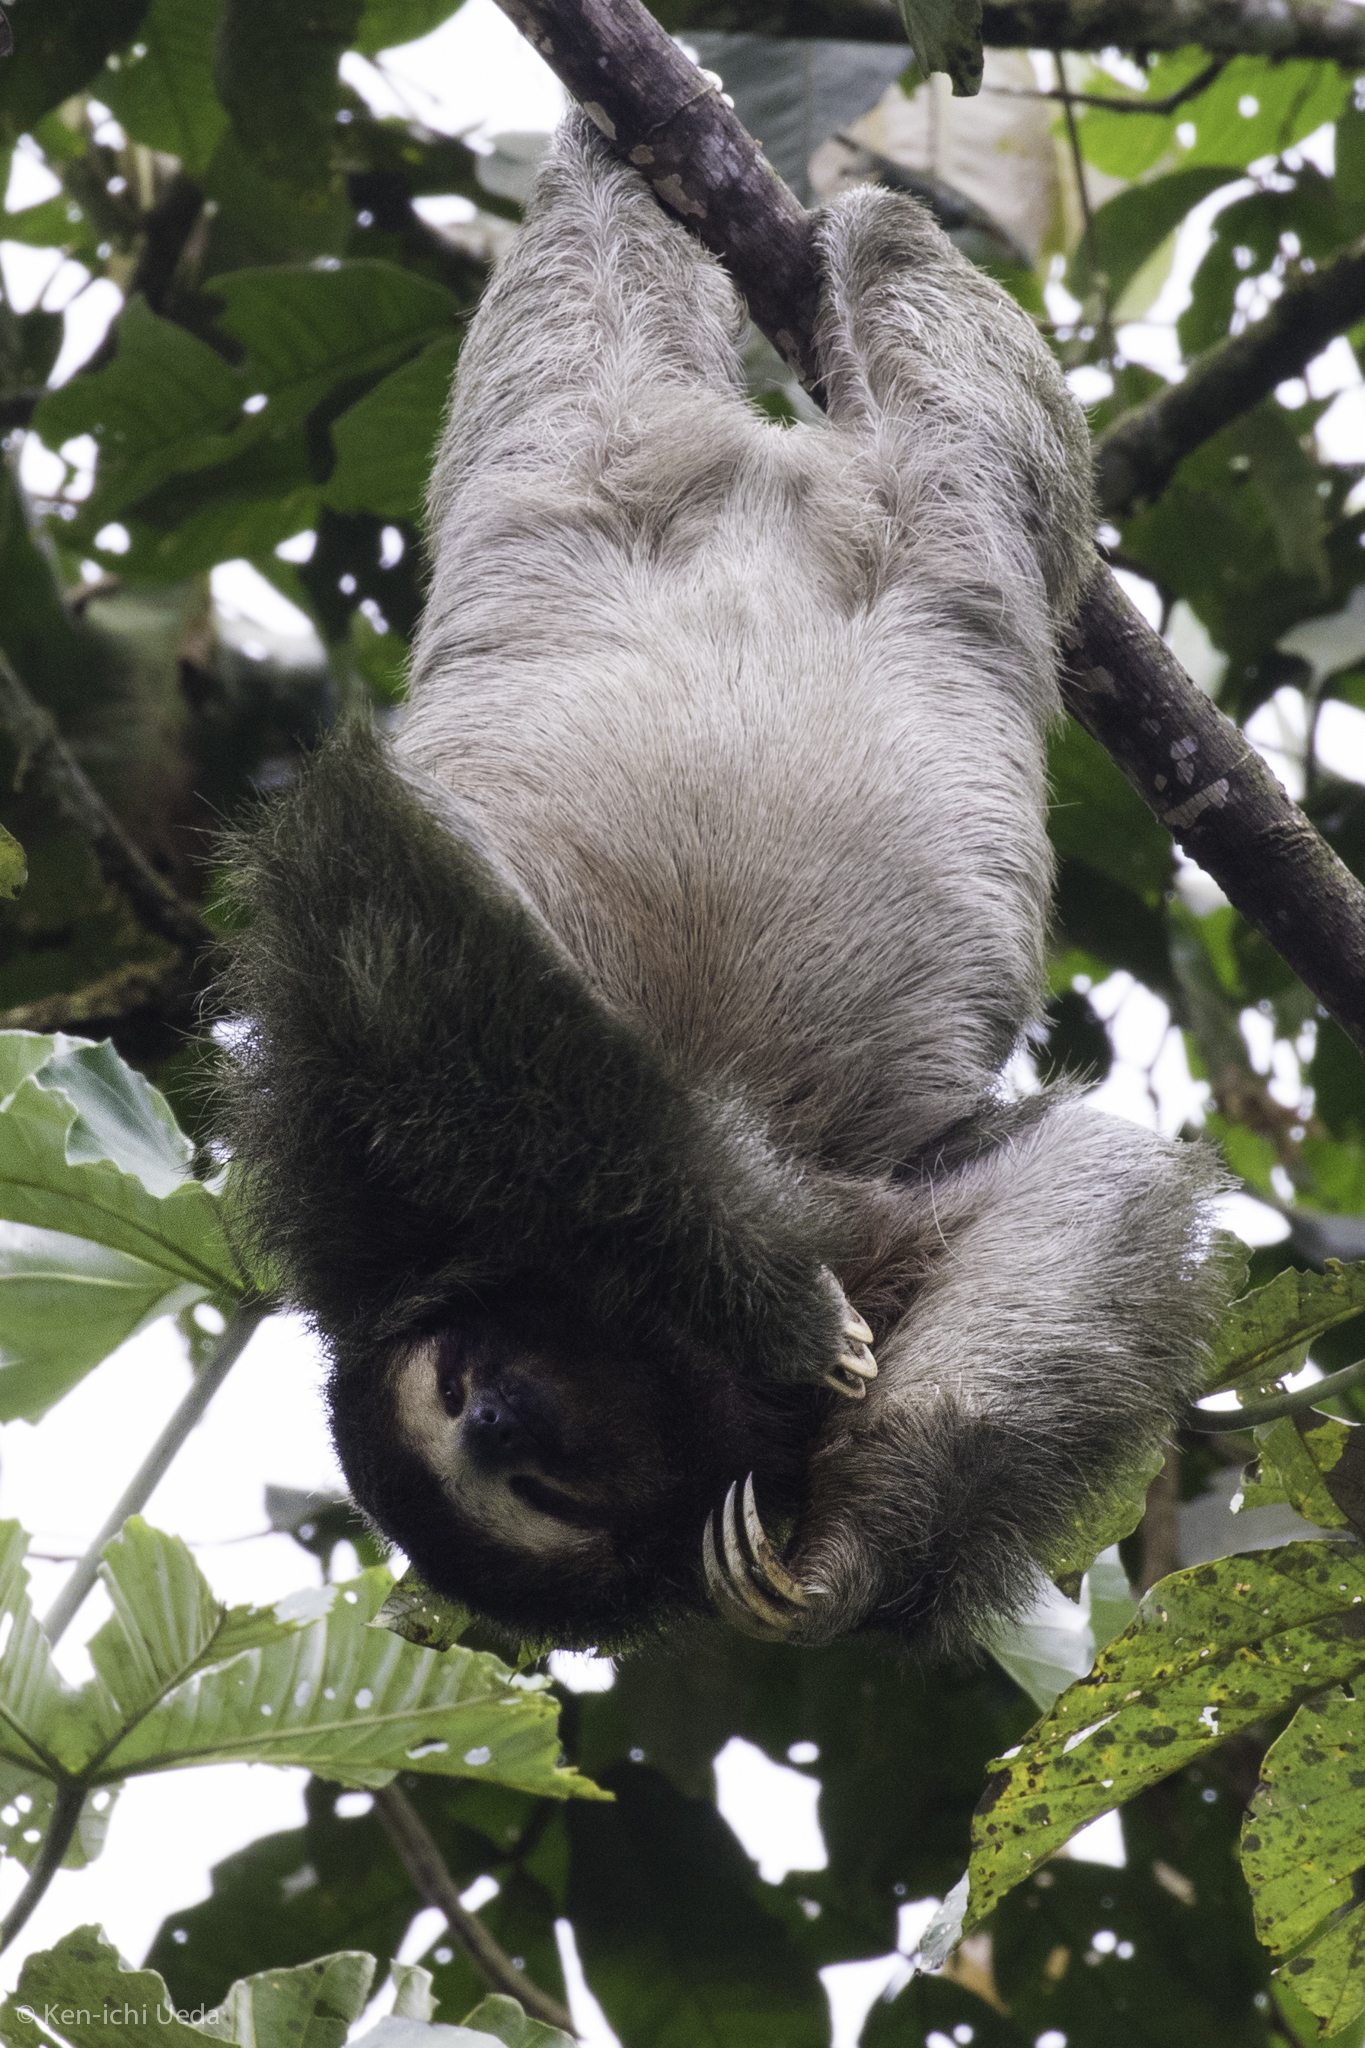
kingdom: Animalia
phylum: Chordata
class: Mammalia
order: Pilosa
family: Bradypodidae
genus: Bradypus
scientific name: Bradypus variegatus
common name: Brown-throated three-toed sloth
